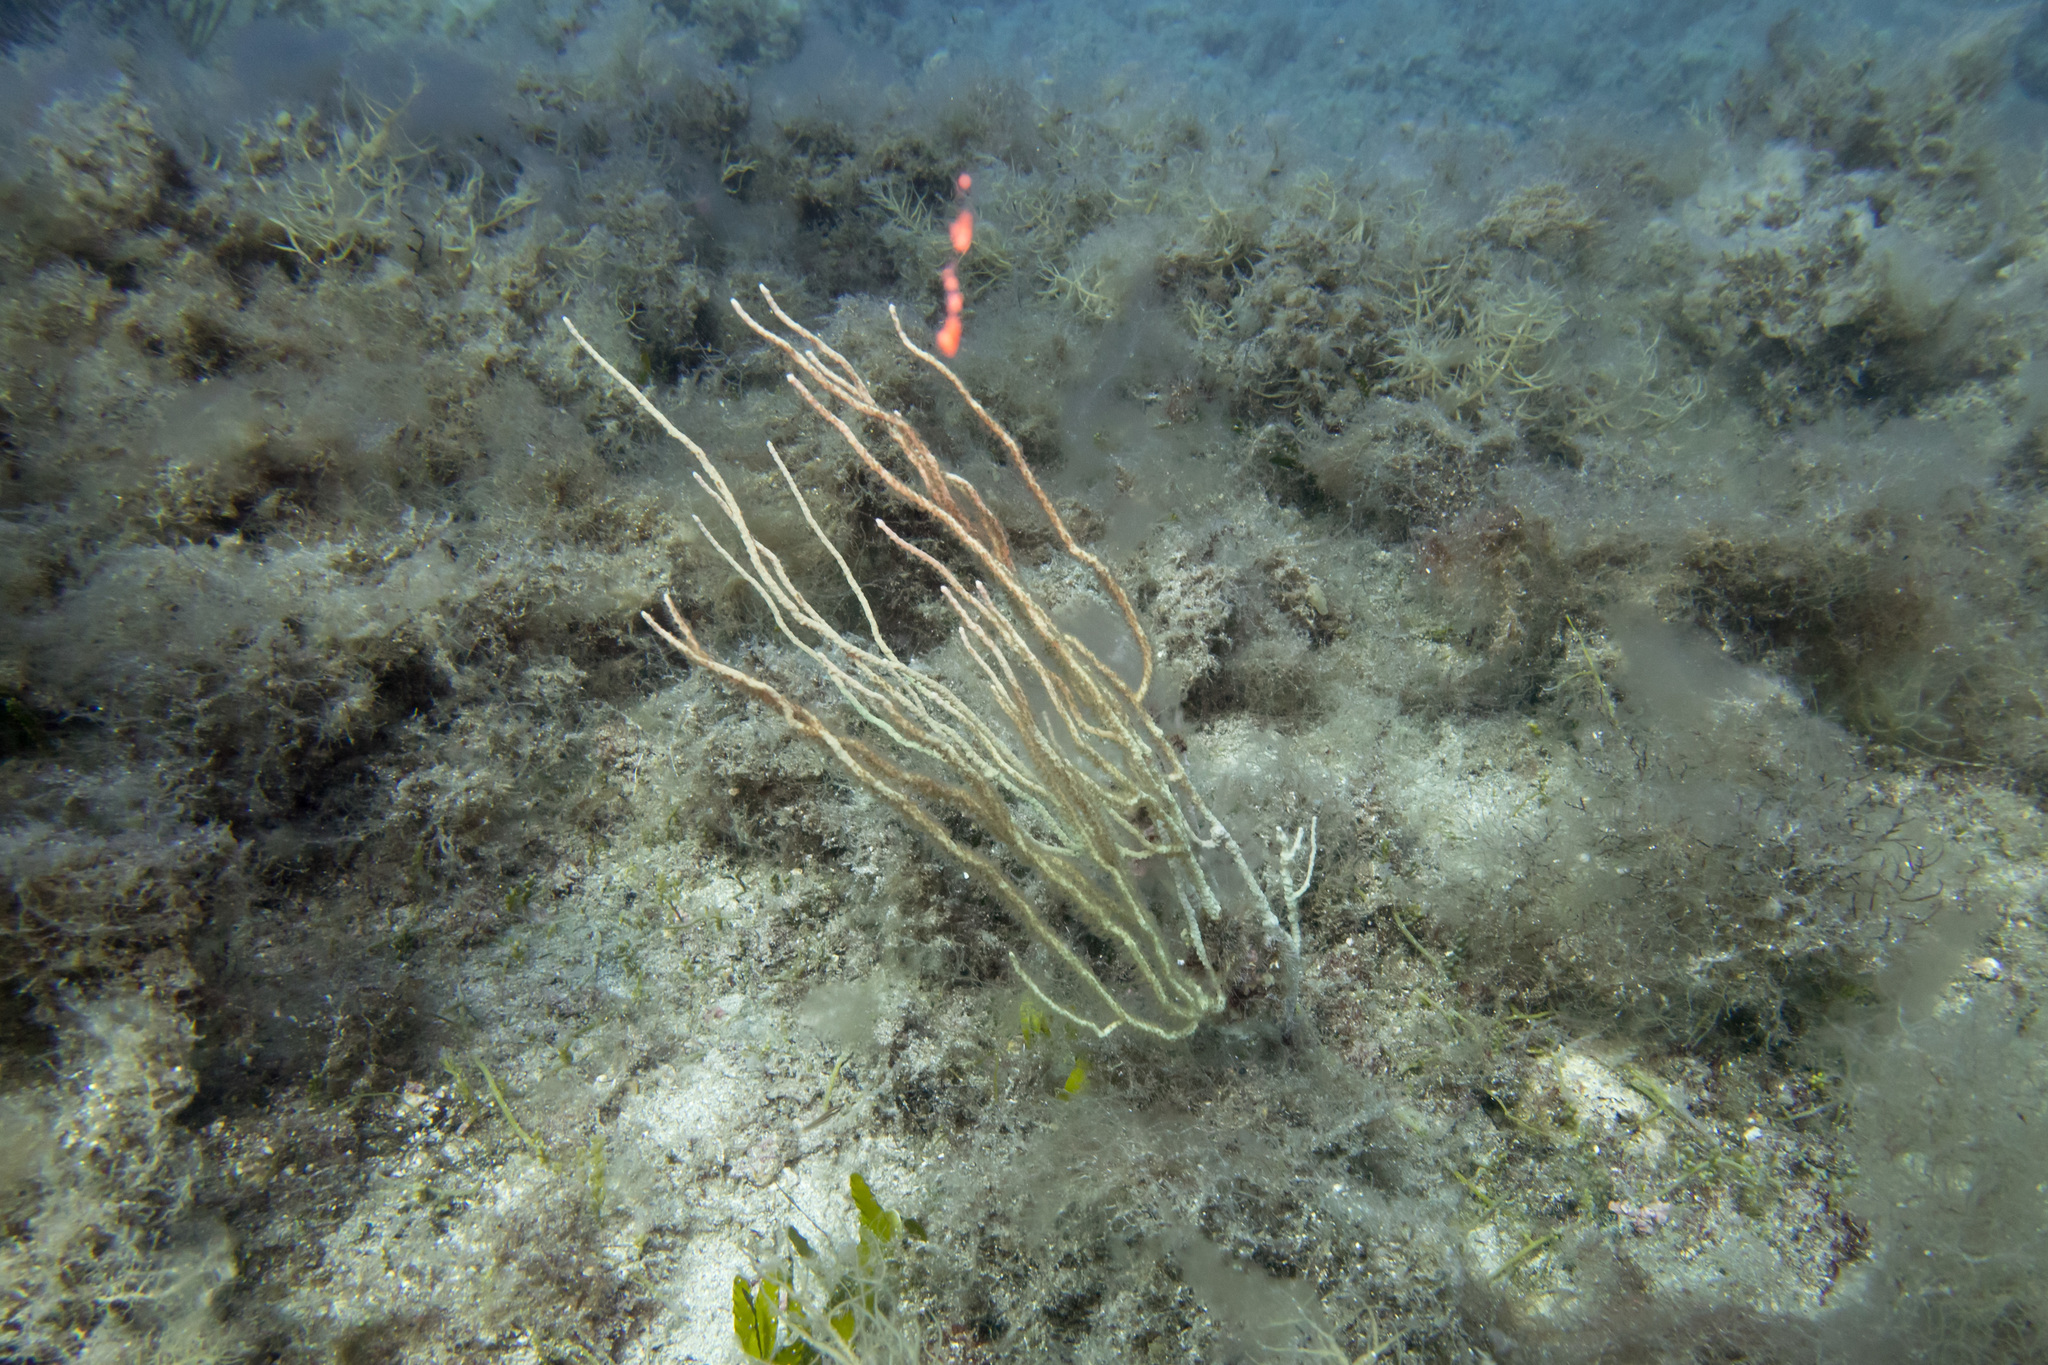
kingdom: Animalia
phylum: Cnidaria
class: Anthozoa
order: Malacalcyonacea
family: Eunicellidae
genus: Eunicella
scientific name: Eunicella singularis
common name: White horny coral
